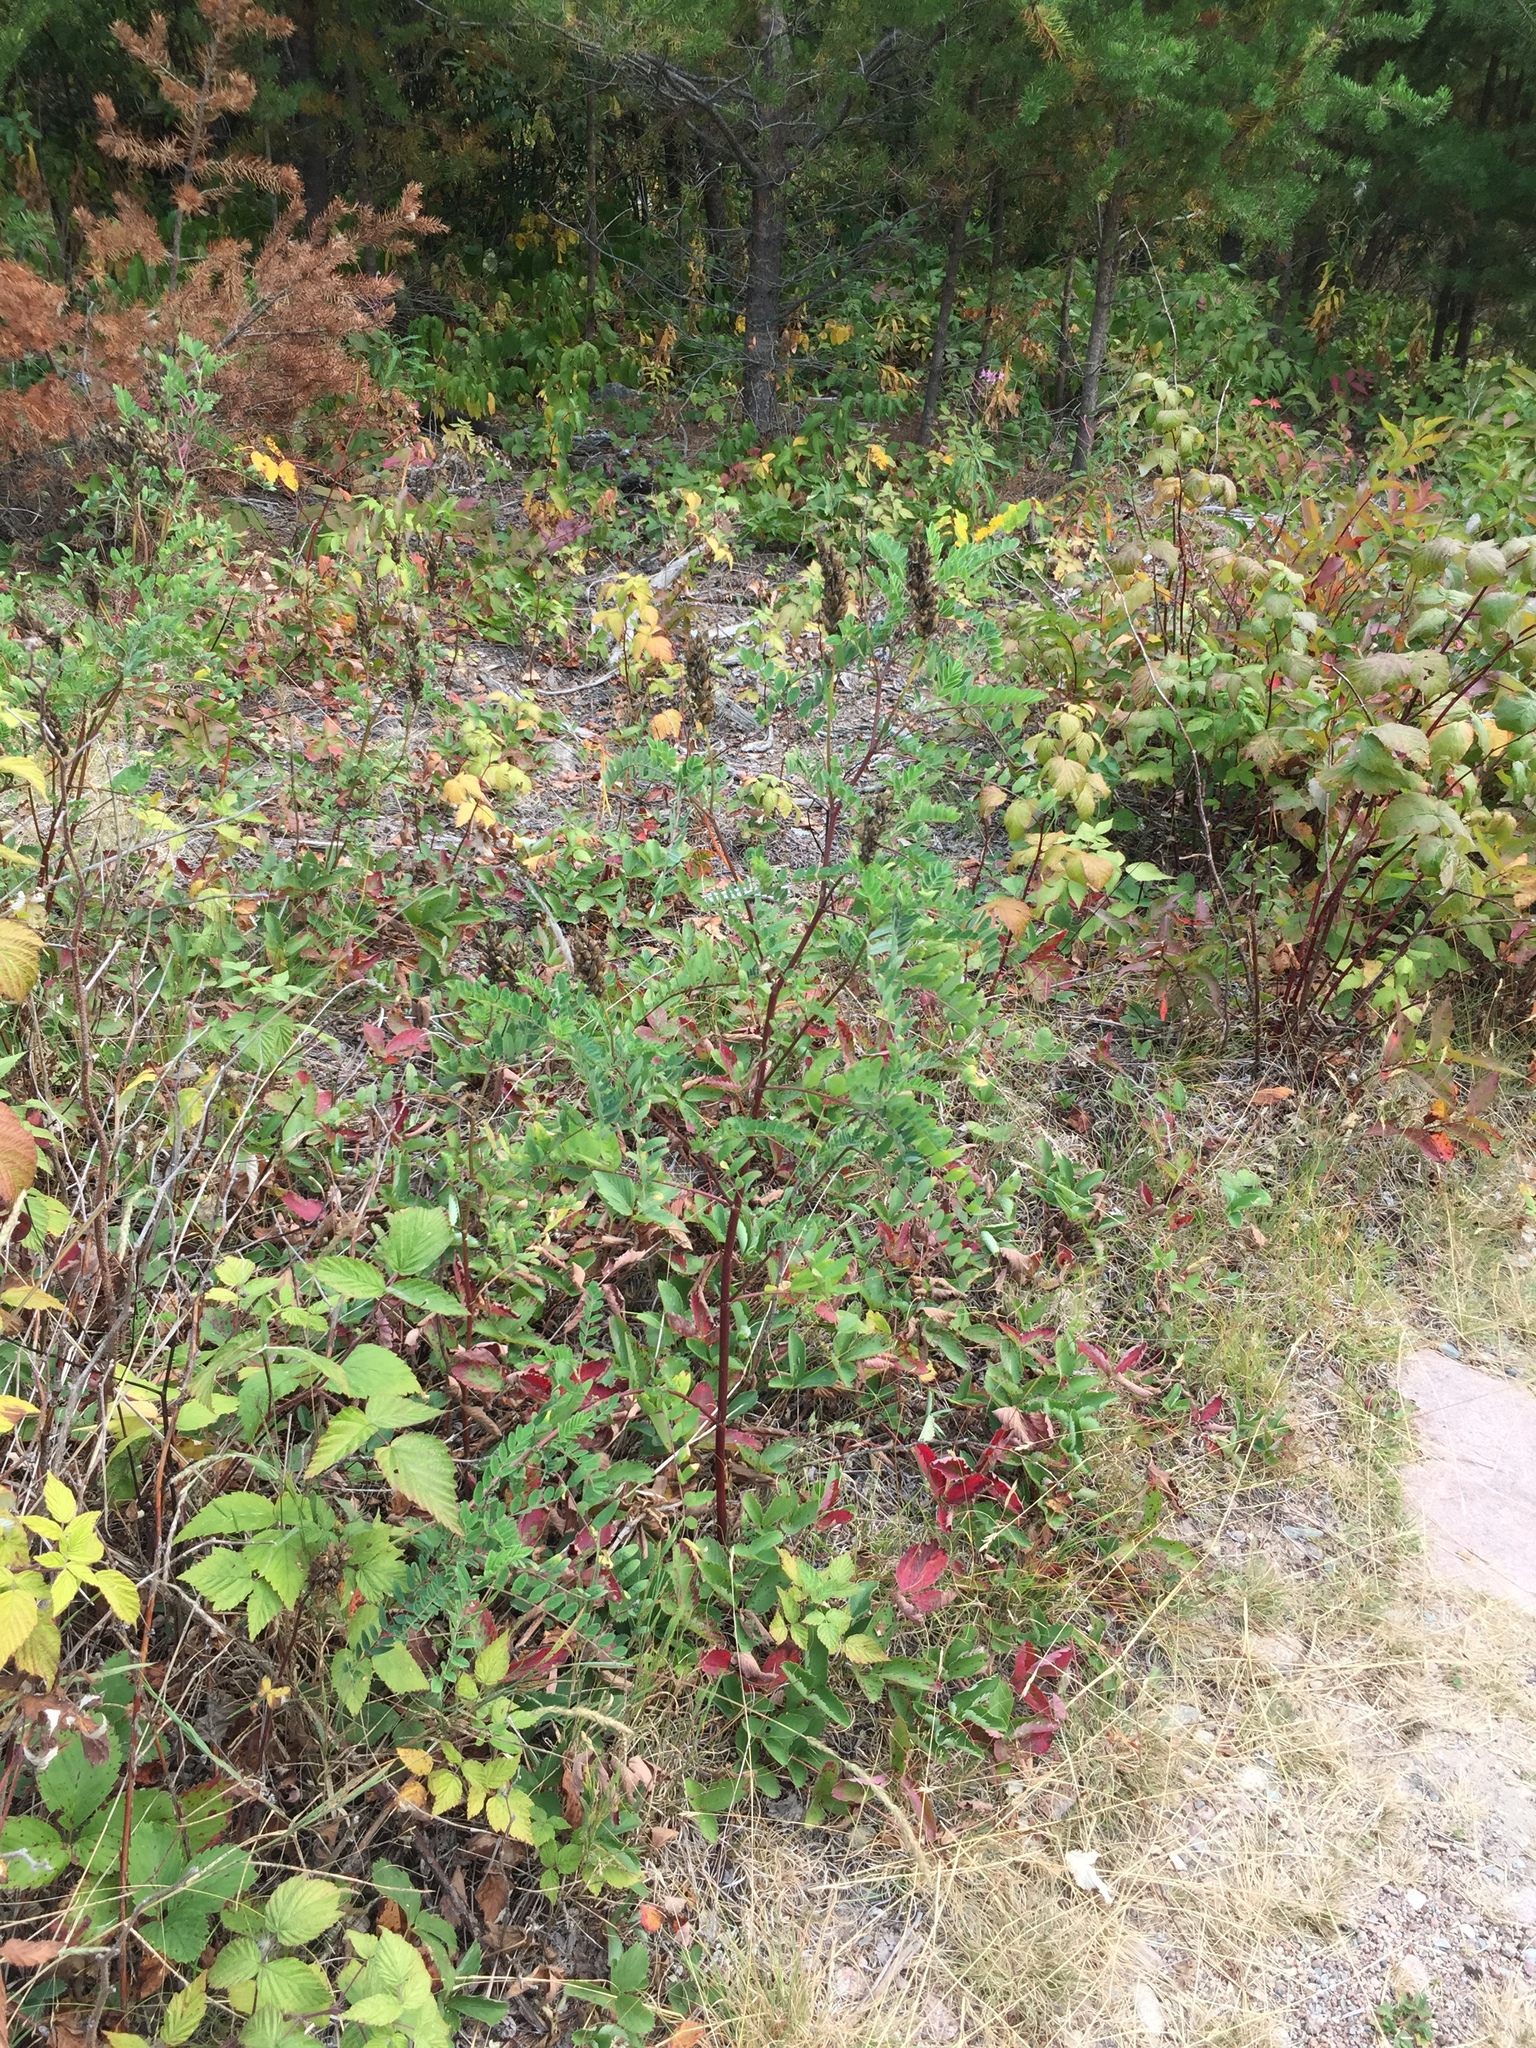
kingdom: Plantae
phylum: Tracheophyta
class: Magnoliopsida
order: Fabales
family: Fabaceae
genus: Astragalus
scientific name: Astragalus canadensis
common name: Canada milk-vetch
